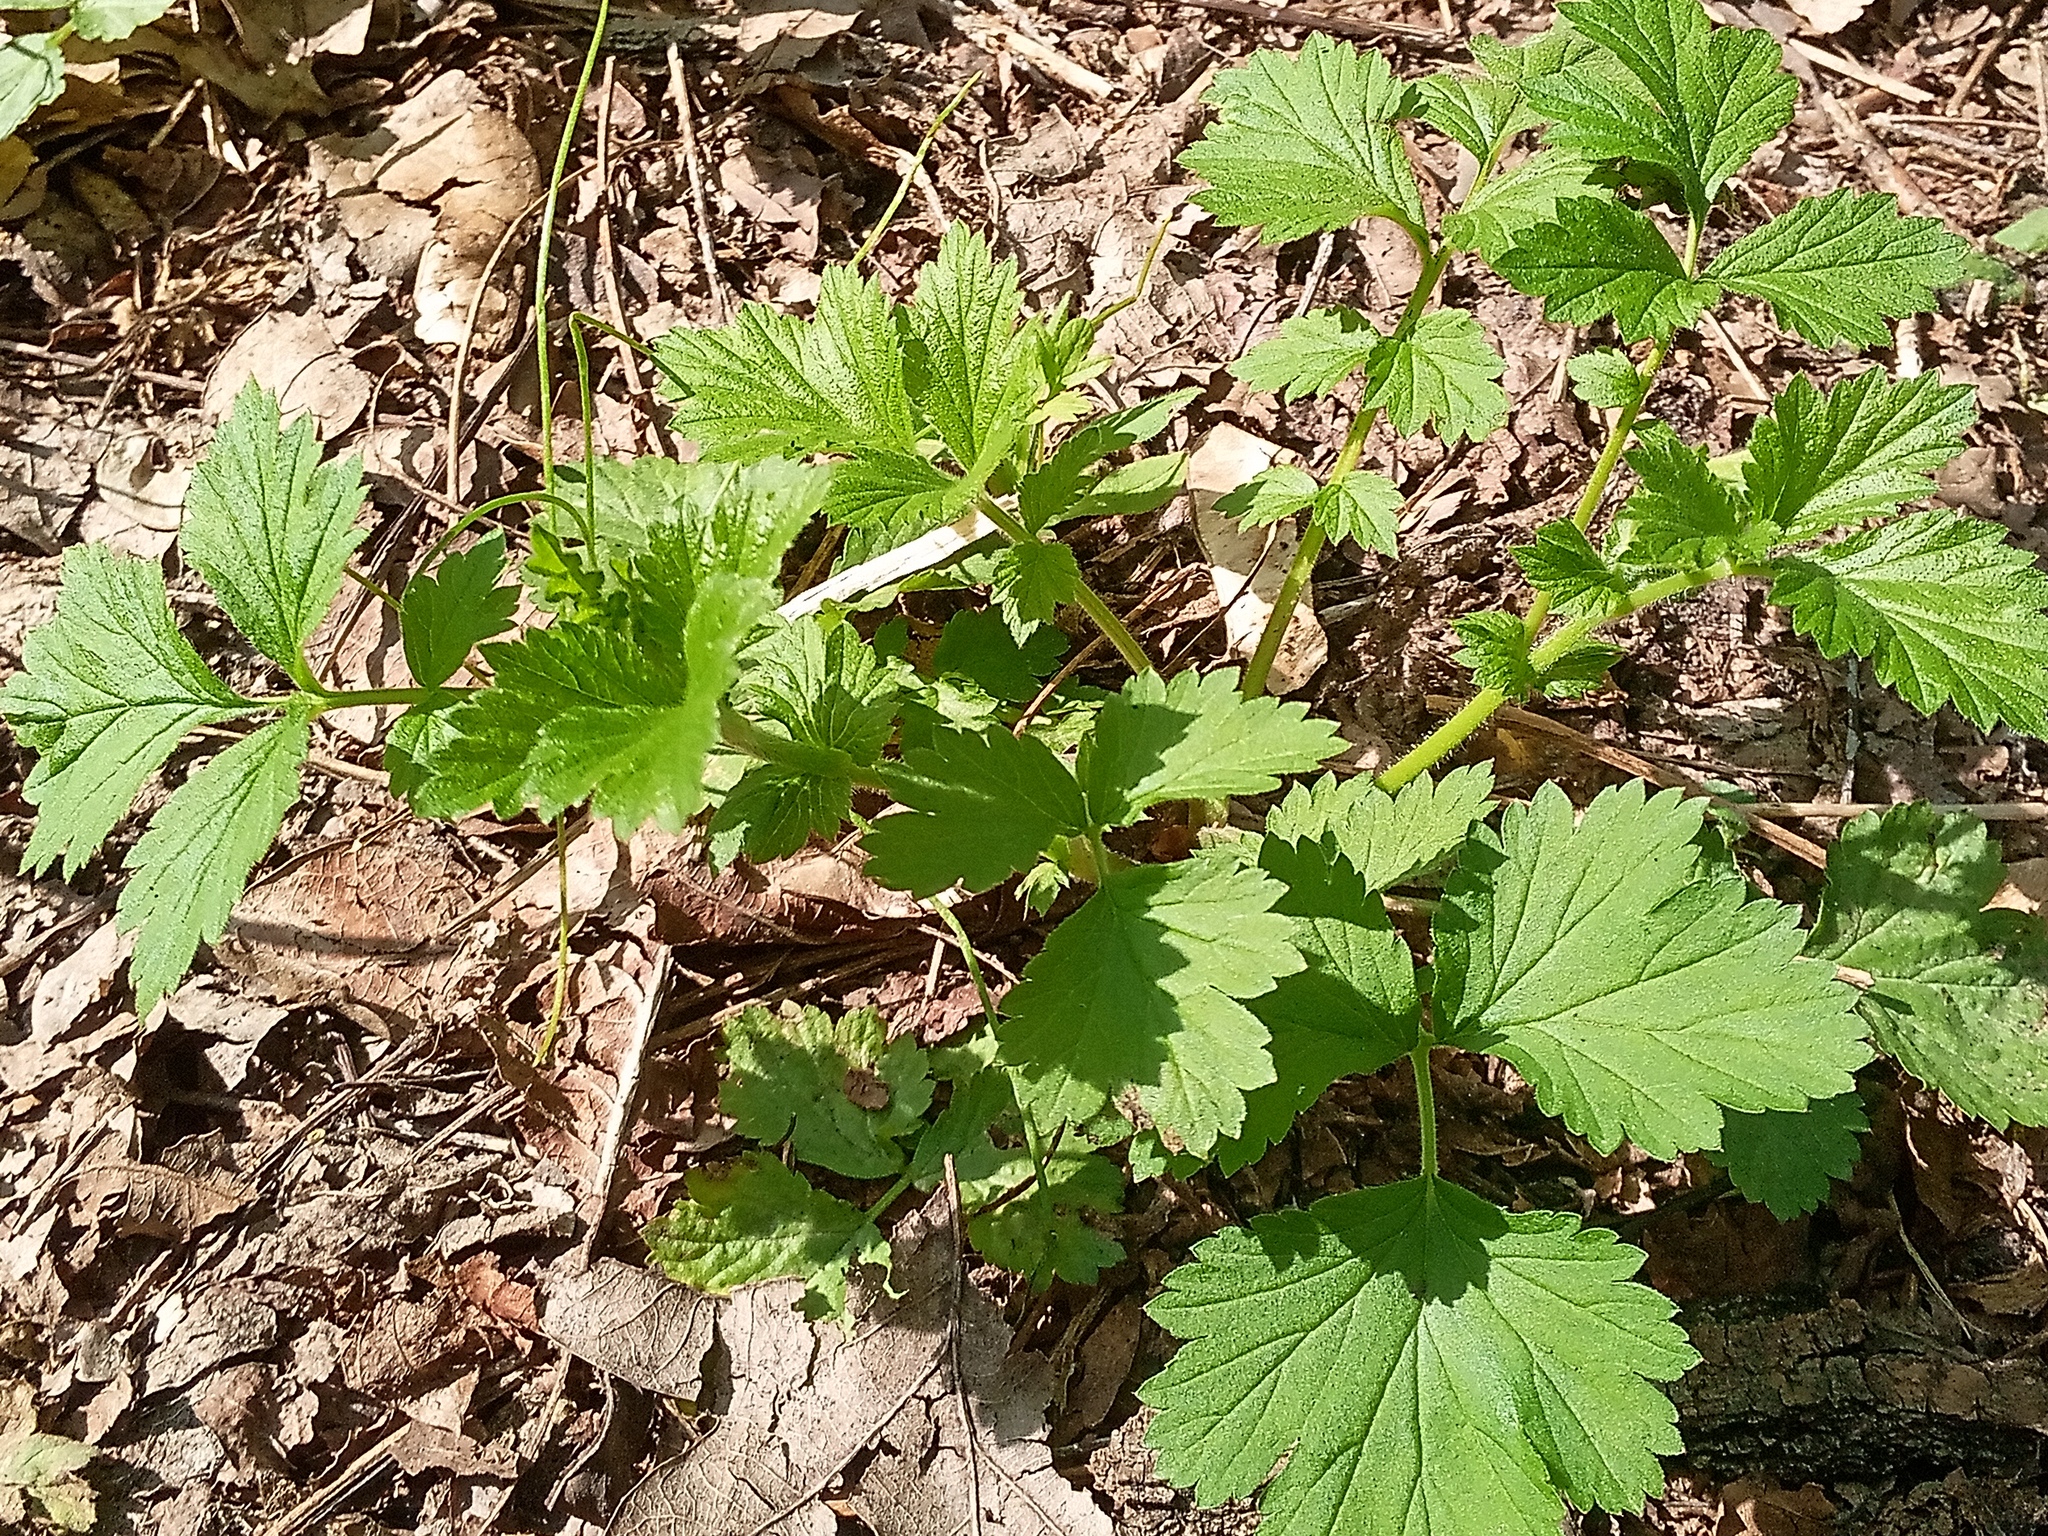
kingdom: Plantae
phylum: Tracheophyta
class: Magnoliopsida
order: Rosales
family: Rosaceae
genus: Geum
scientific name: Geum urbanum
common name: Wood avens
